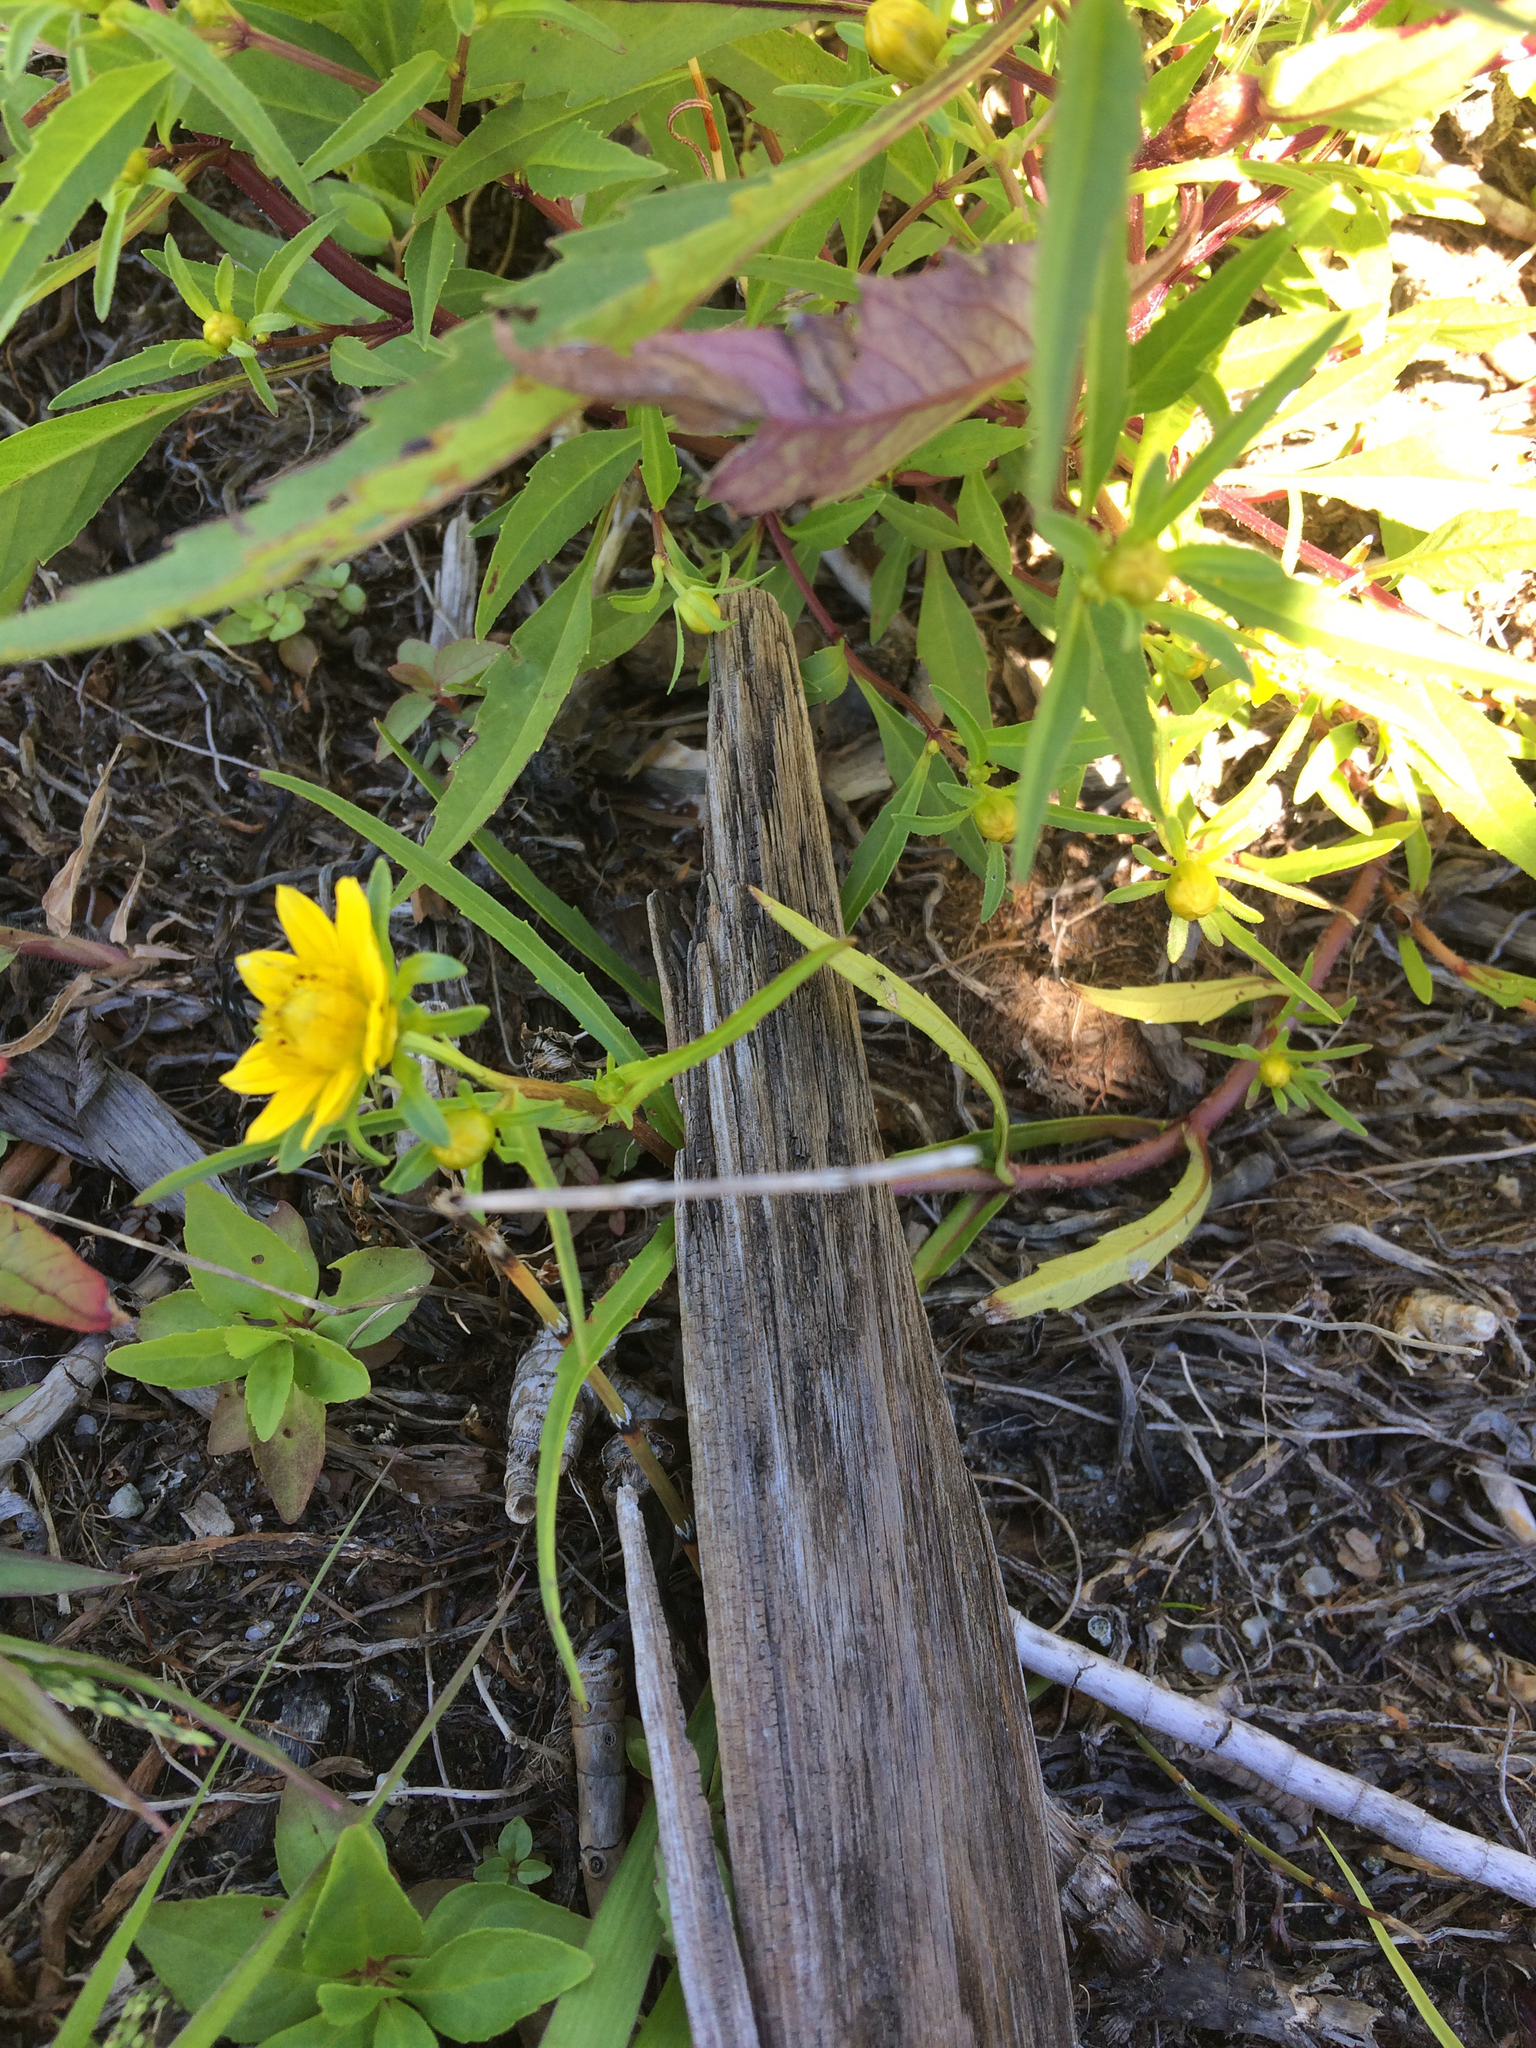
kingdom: Plantae
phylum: Tracheophyta
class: Magnoliopsida
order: Asterales
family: Asteraceae
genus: Bidens
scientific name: Bidens cernua
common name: Nodding bur-marigold
